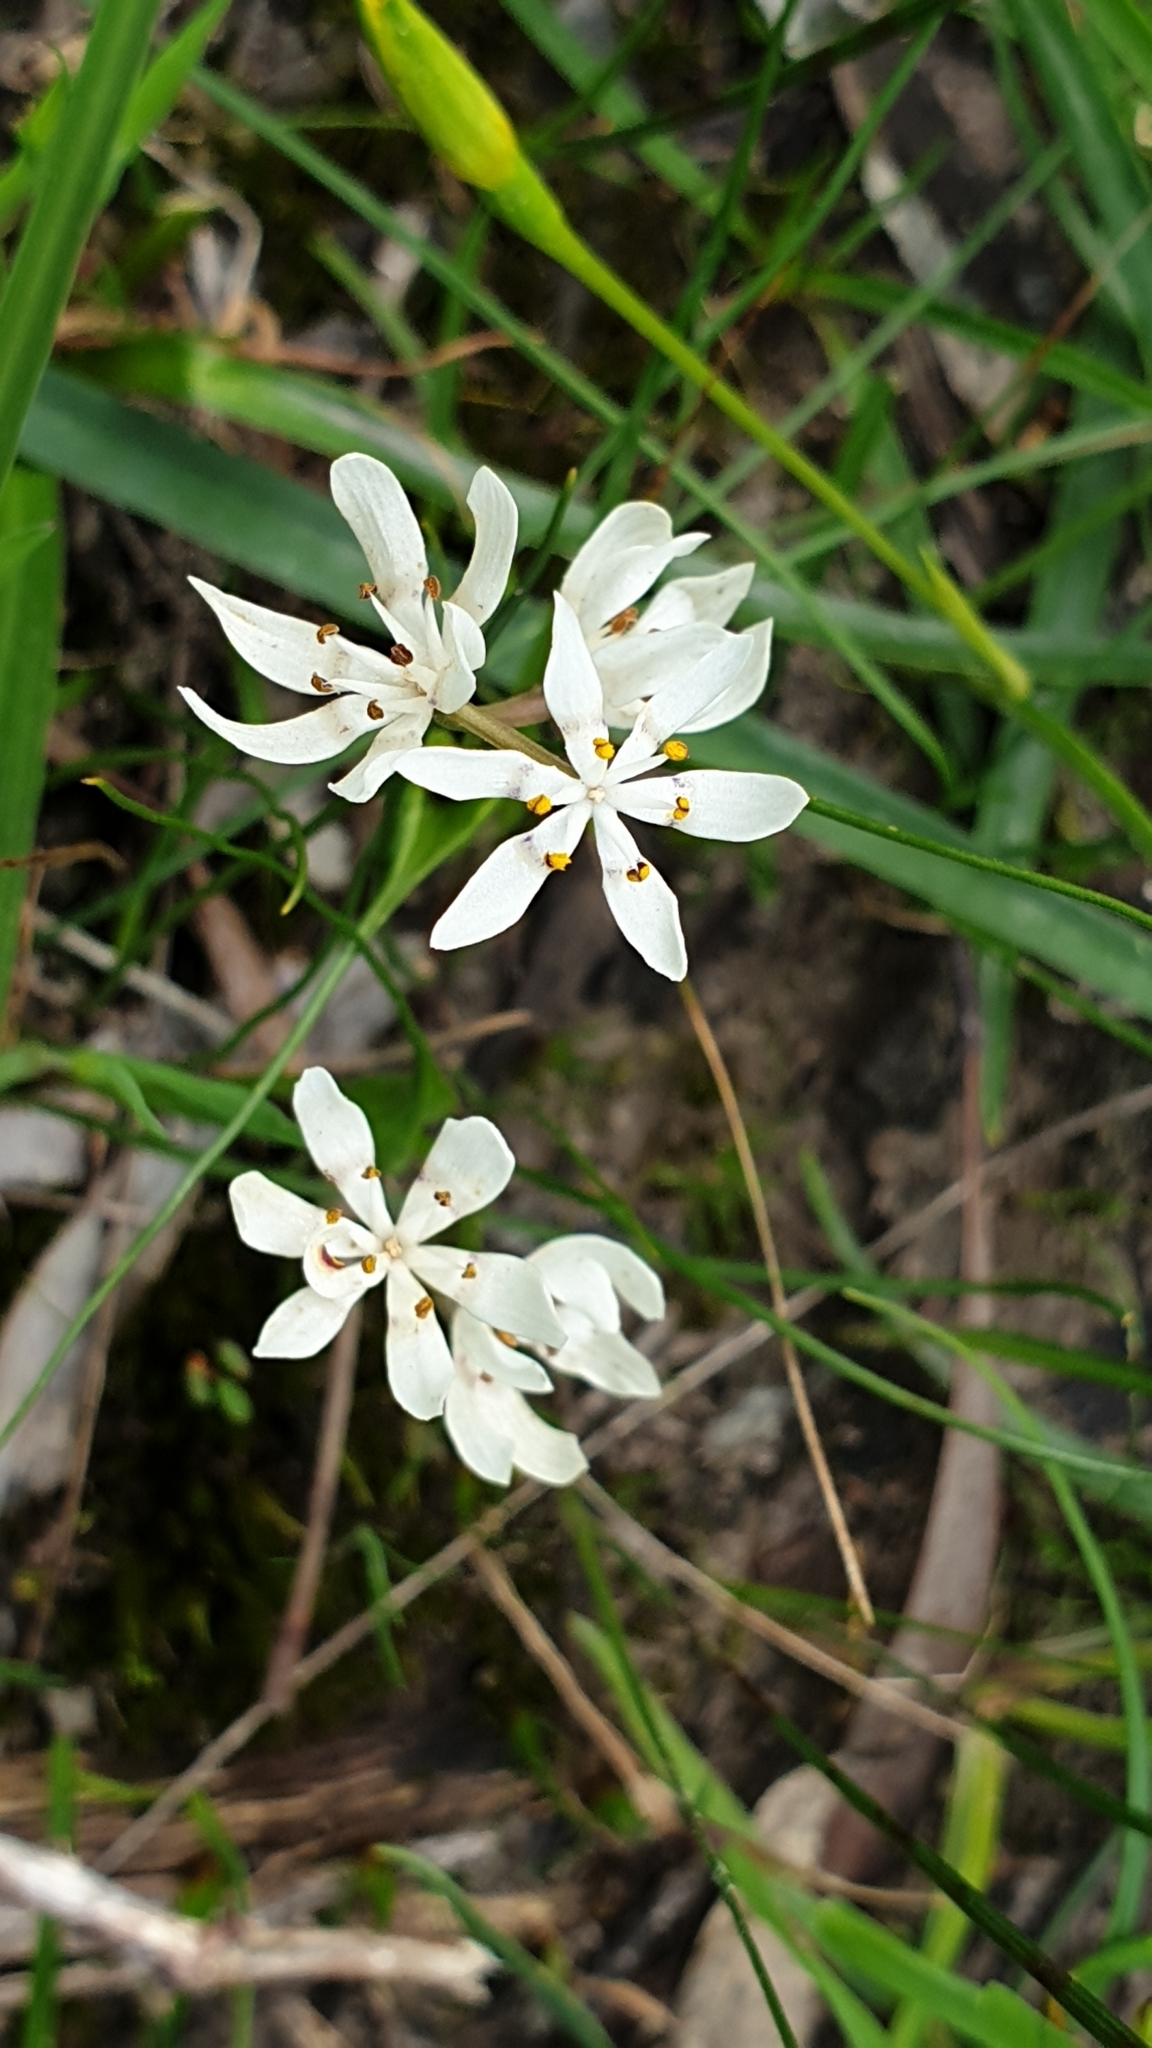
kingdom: Plantae
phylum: Tracheophyta
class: Liliopsida
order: Liliales
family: Colchicaceae
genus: Wurmbea
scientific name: Wurmbea dioica
